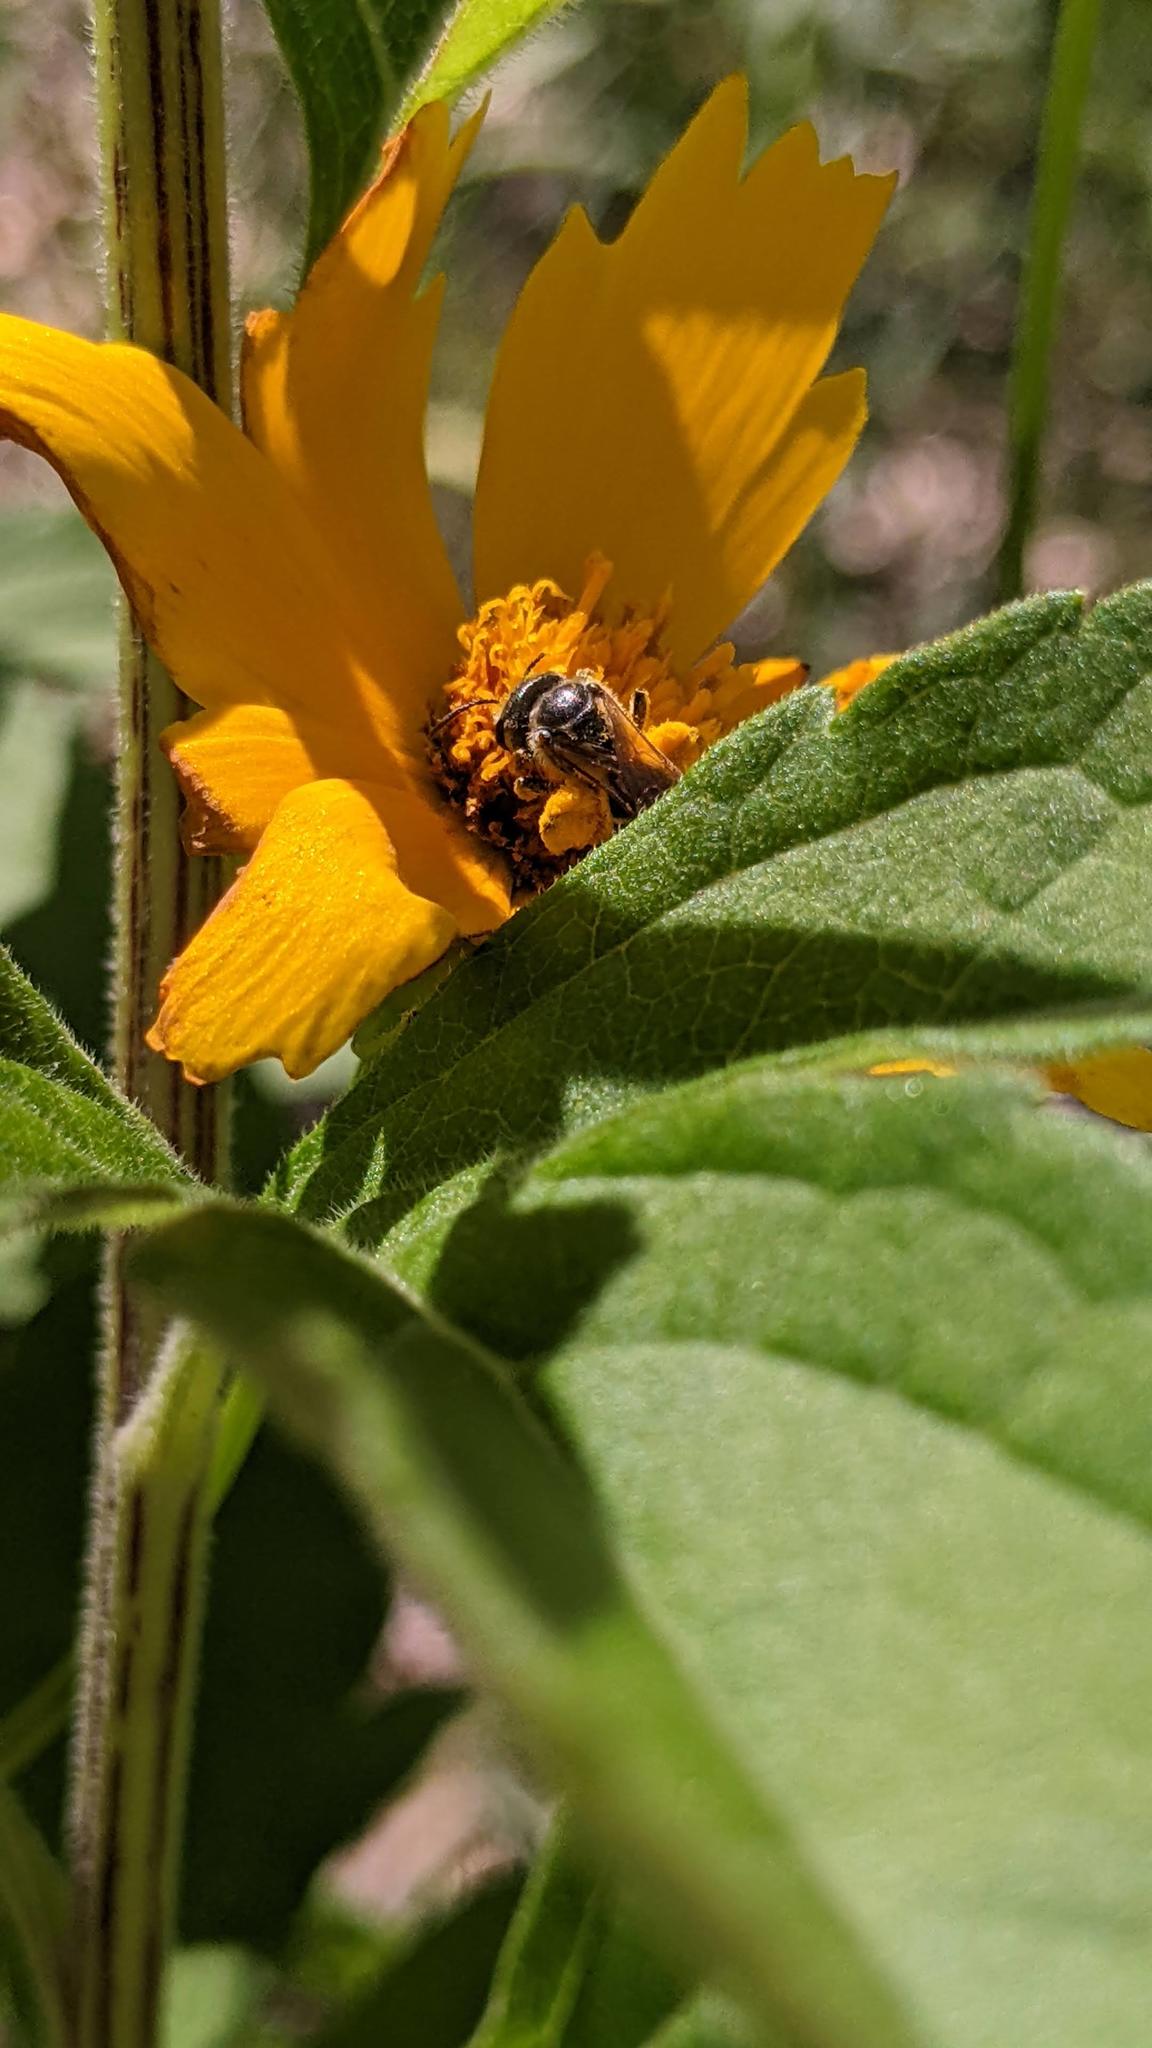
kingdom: Animalia
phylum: Arthropoda
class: Insecta
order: Hymenoptera
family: Halictidae
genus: Halictus
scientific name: Halictus ligatus
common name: Ligated furrow bee
